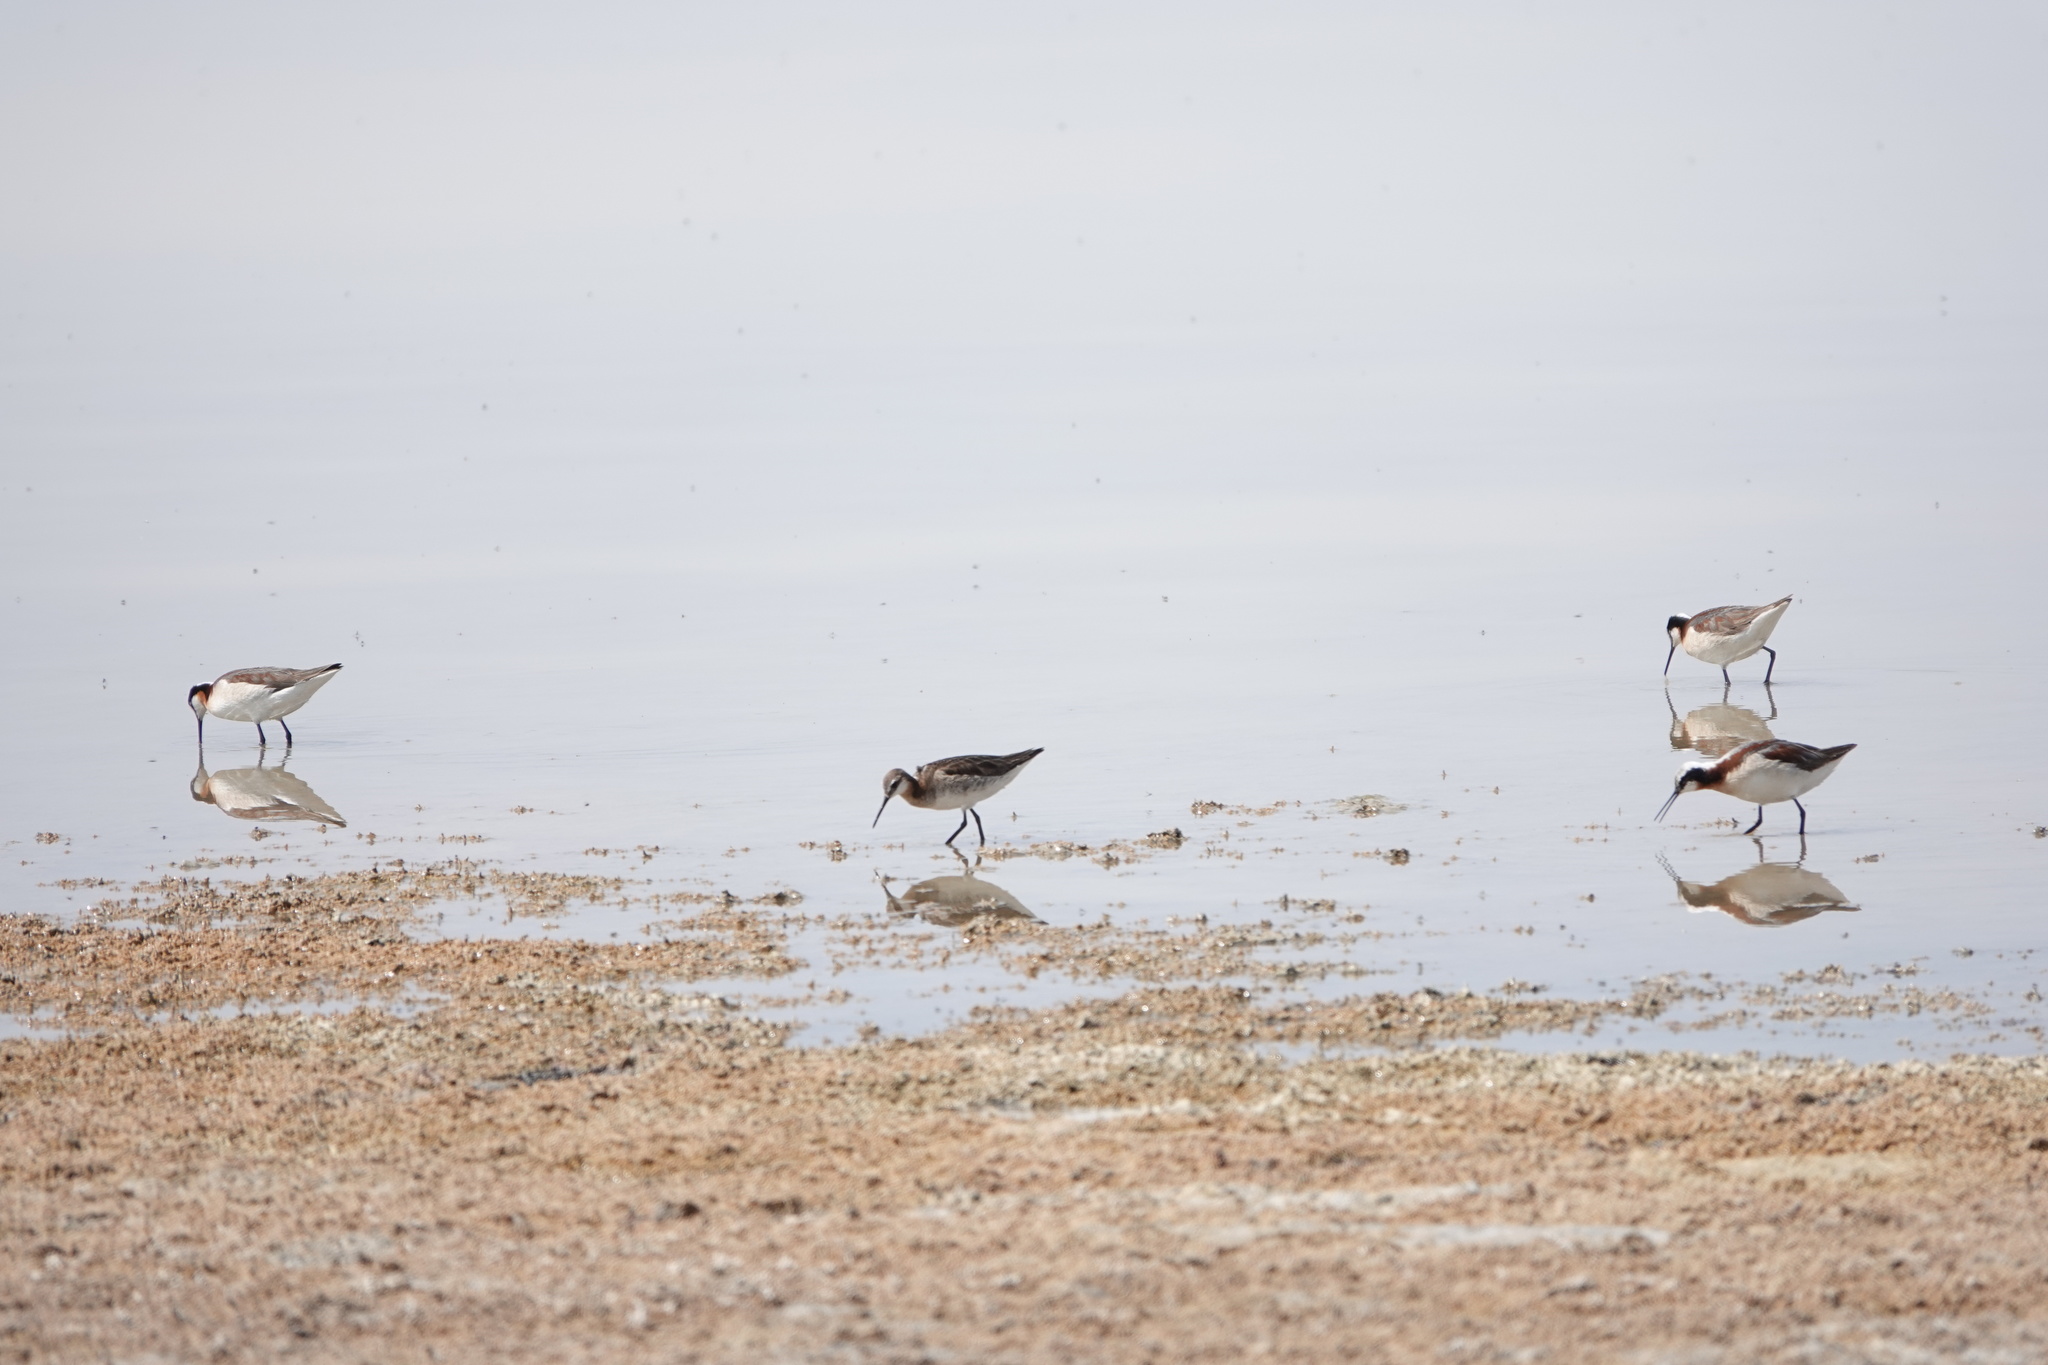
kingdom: Animalia
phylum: Chordata
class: Aves
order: Charadriiformes
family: Scolopacidae
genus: Phalaropus
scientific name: Phalaropus tricolor
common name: Wilson's phalarope
